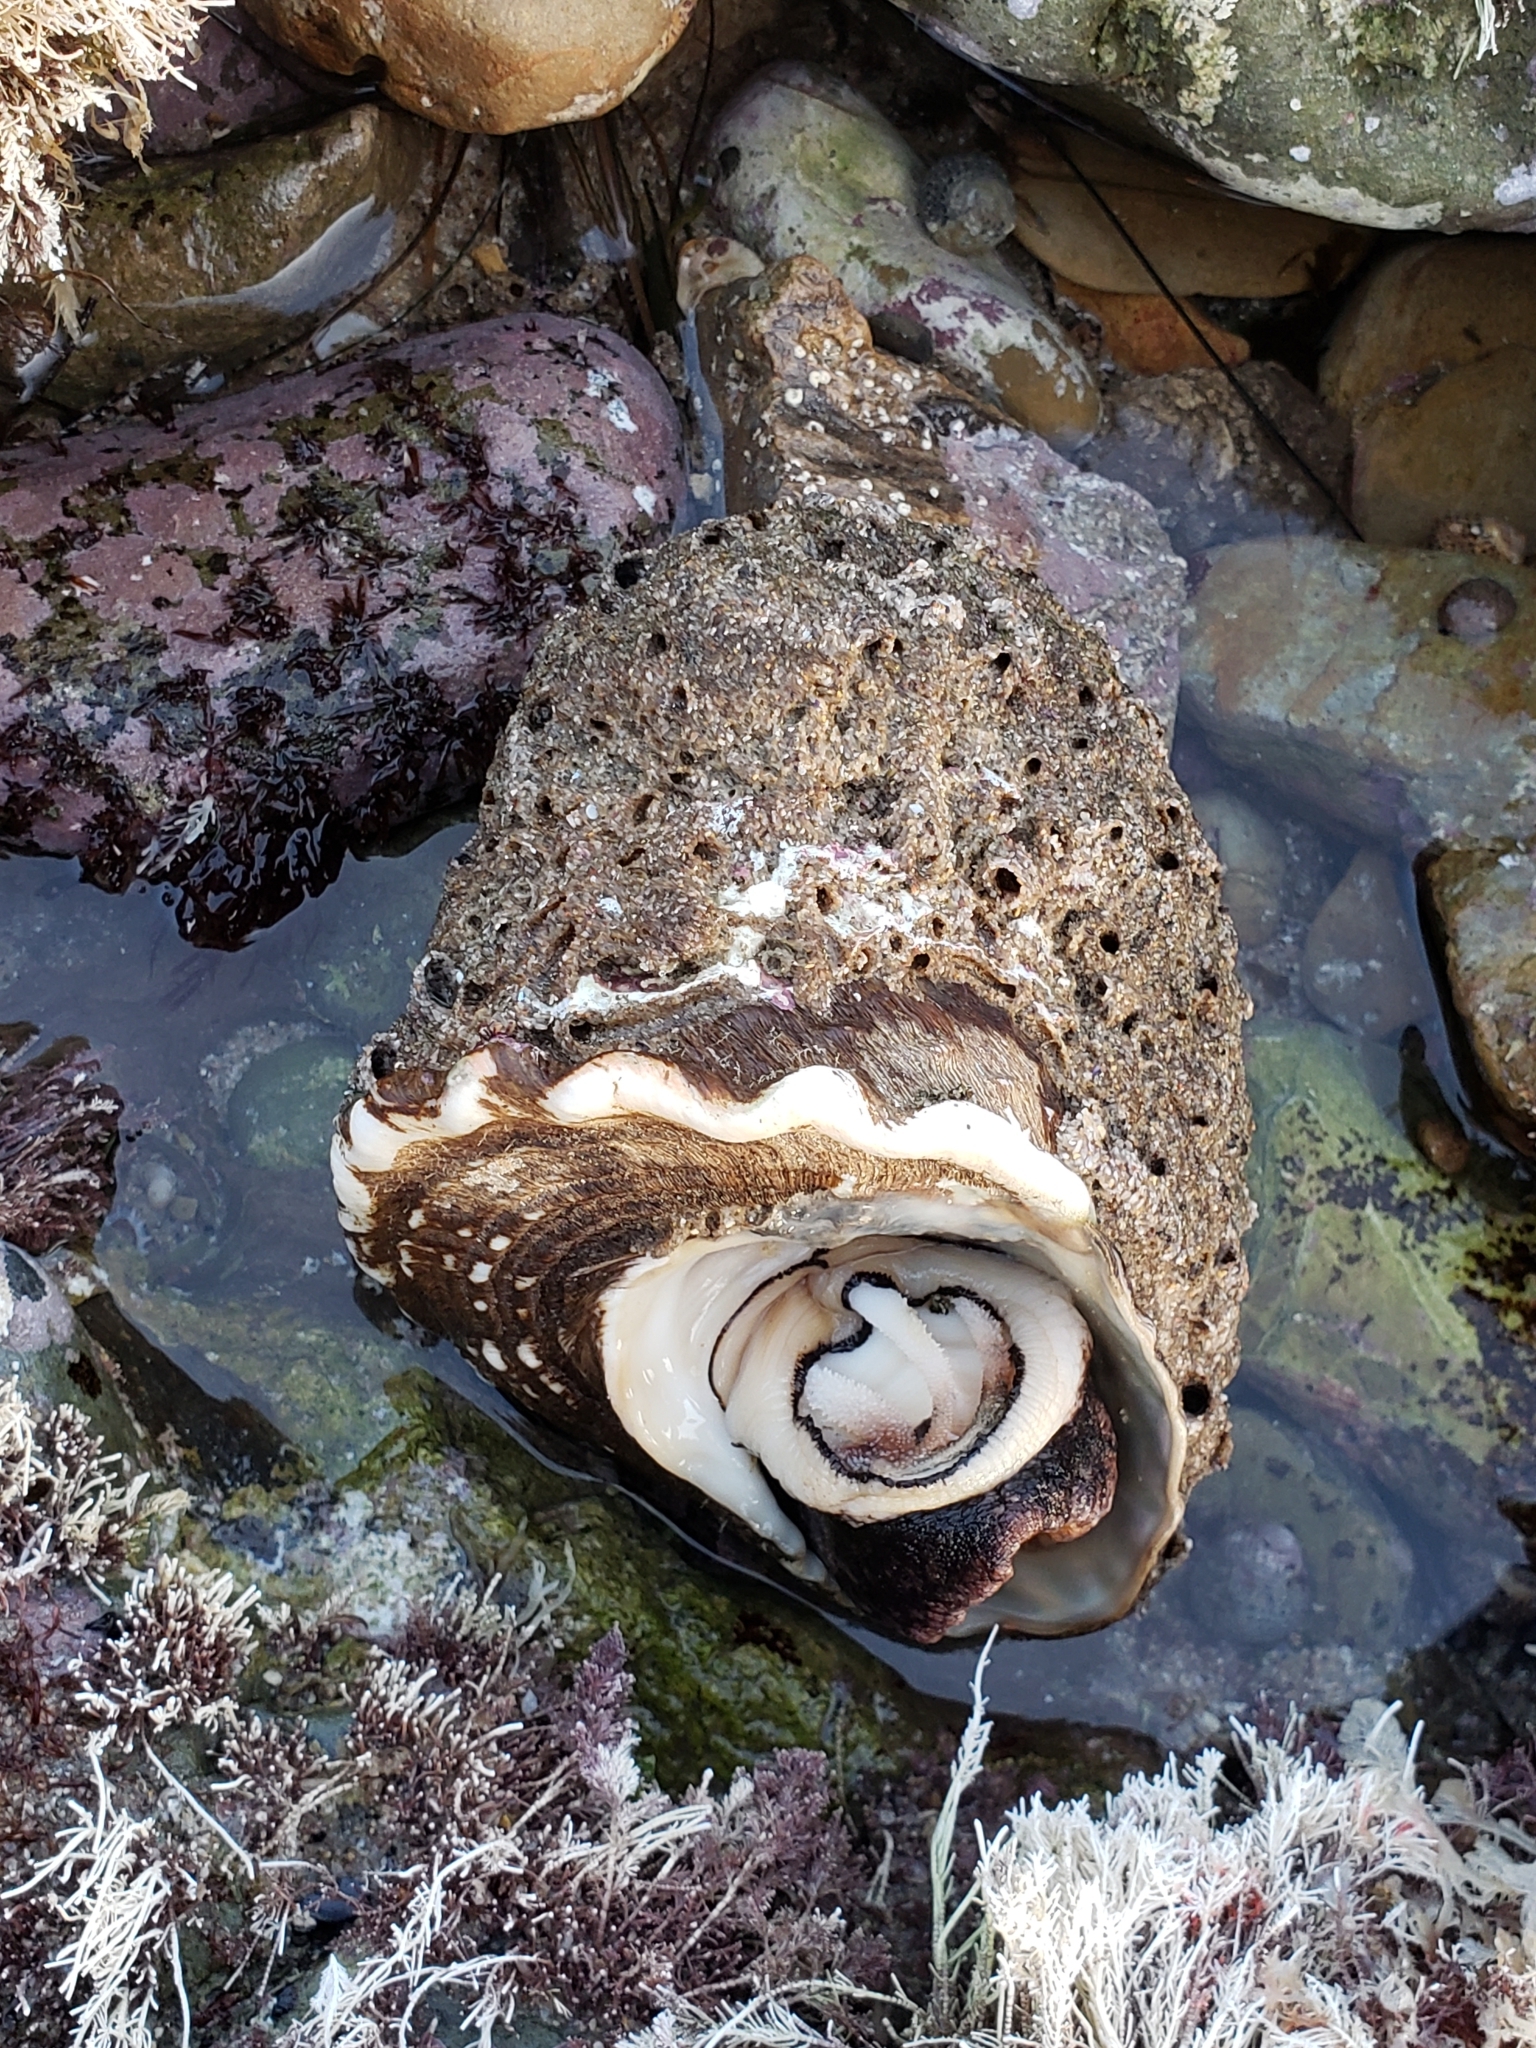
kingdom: Animalia
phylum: Mollusca
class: Gastropoda
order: Trochida
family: Turbinidae
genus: Megastraea
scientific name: Megastraea undosa
